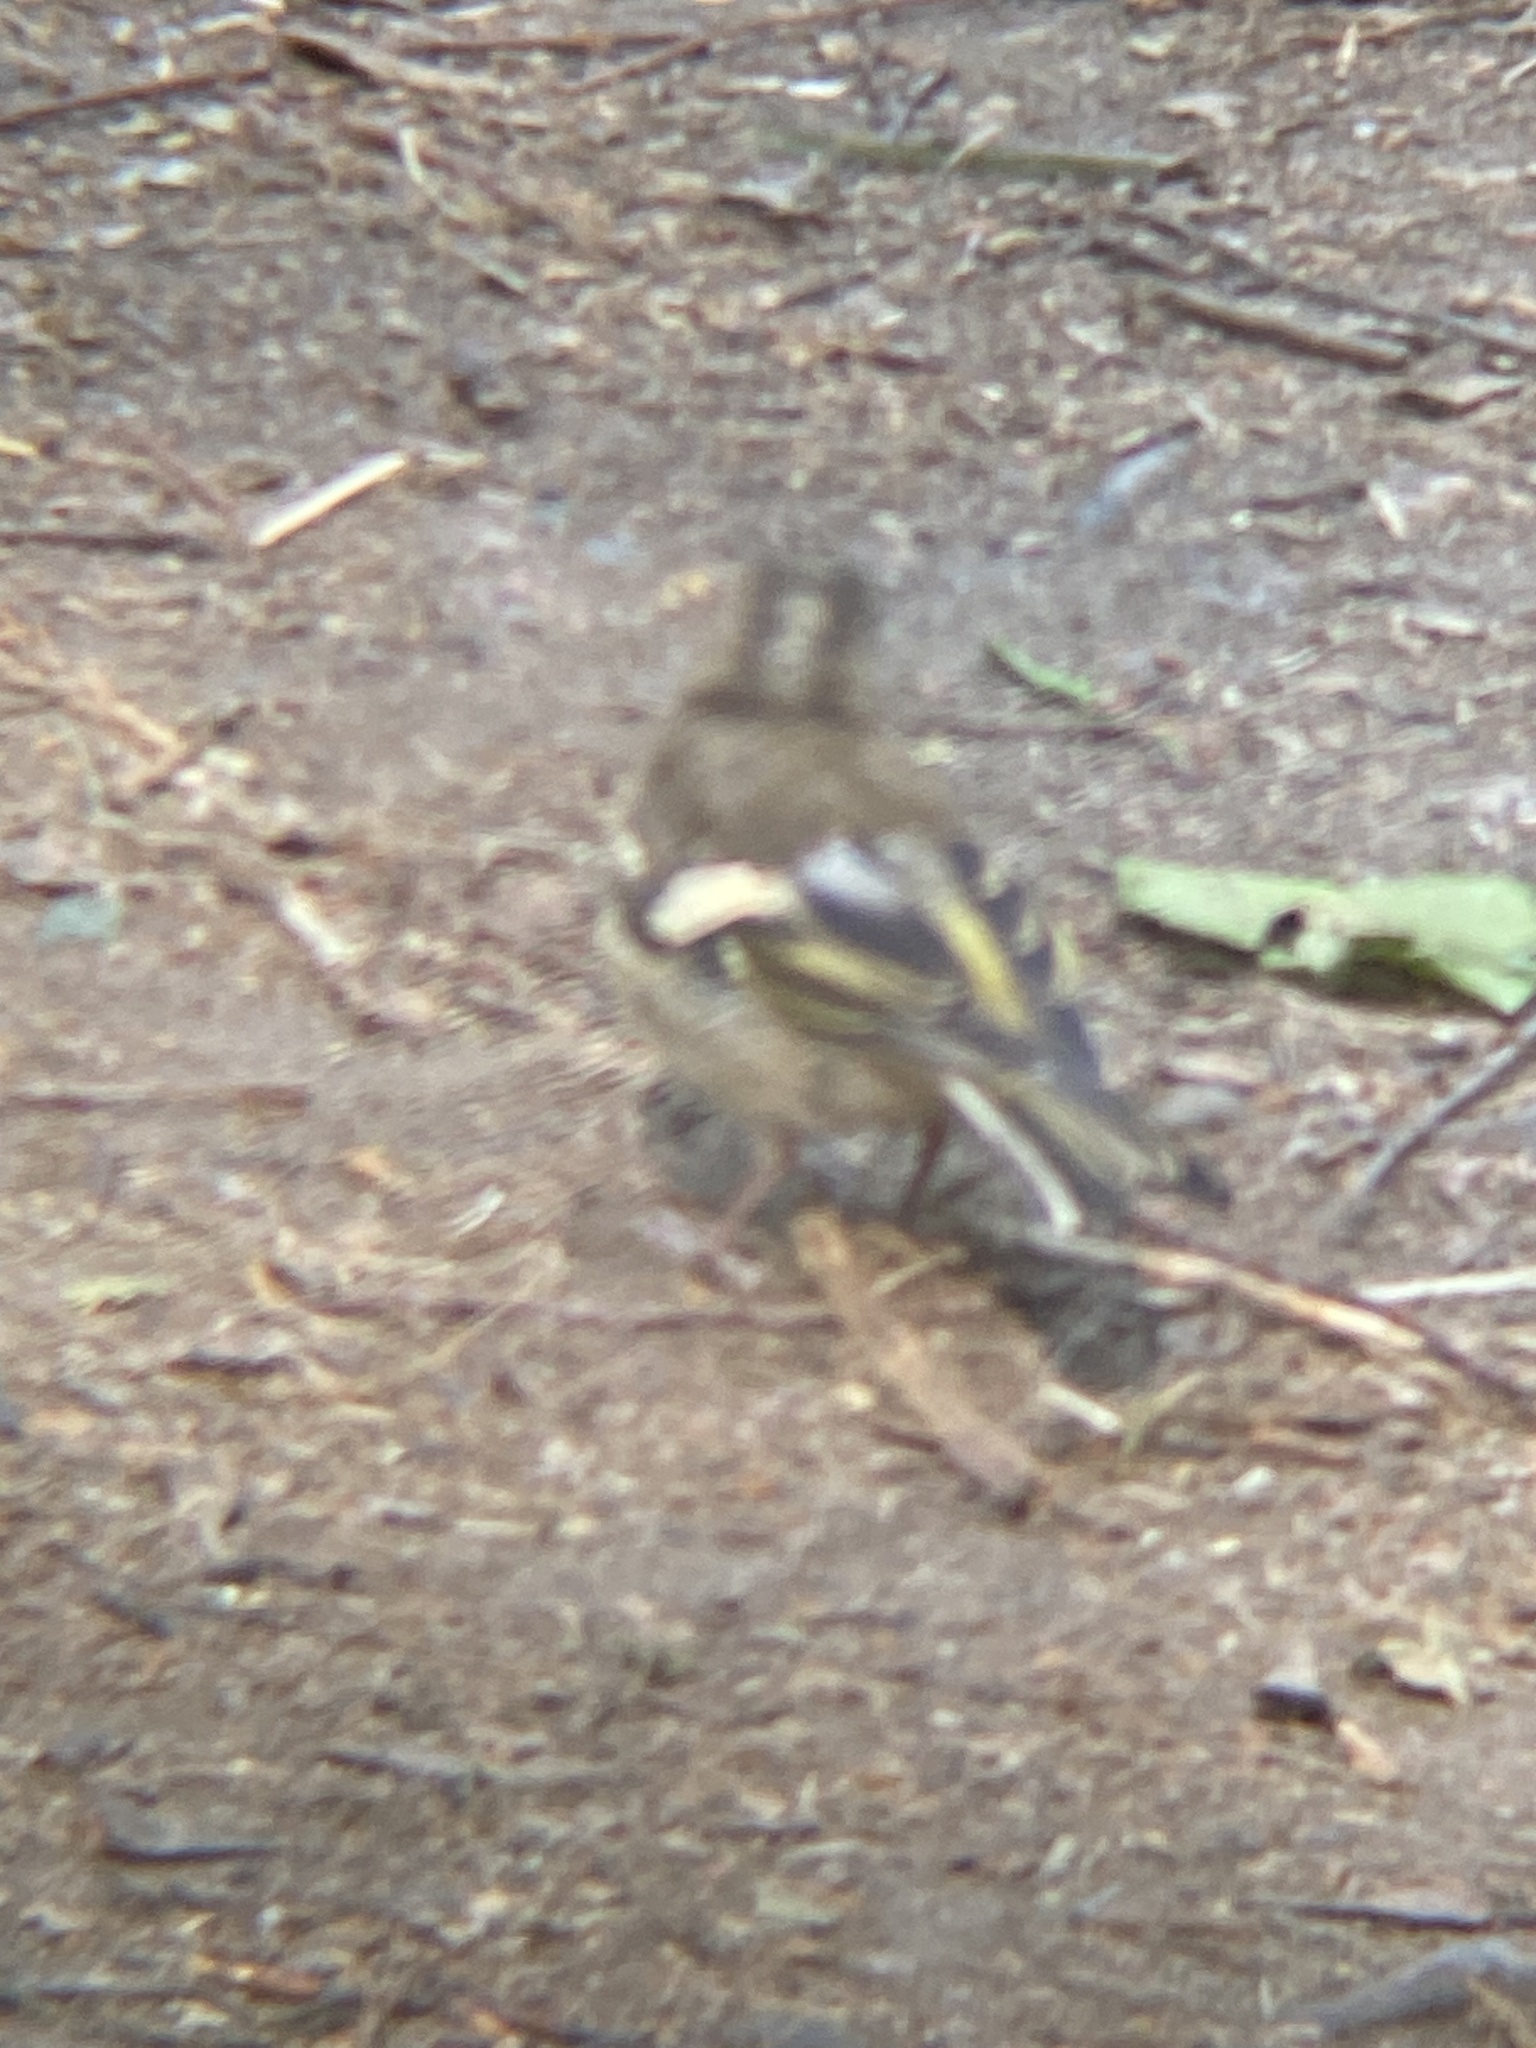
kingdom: Animalia
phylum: Chordata
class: Aves
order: Passeriformes
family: Fringillidae
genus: Fringilla
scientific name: Fringilla coelebs
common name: Common chaffinch
